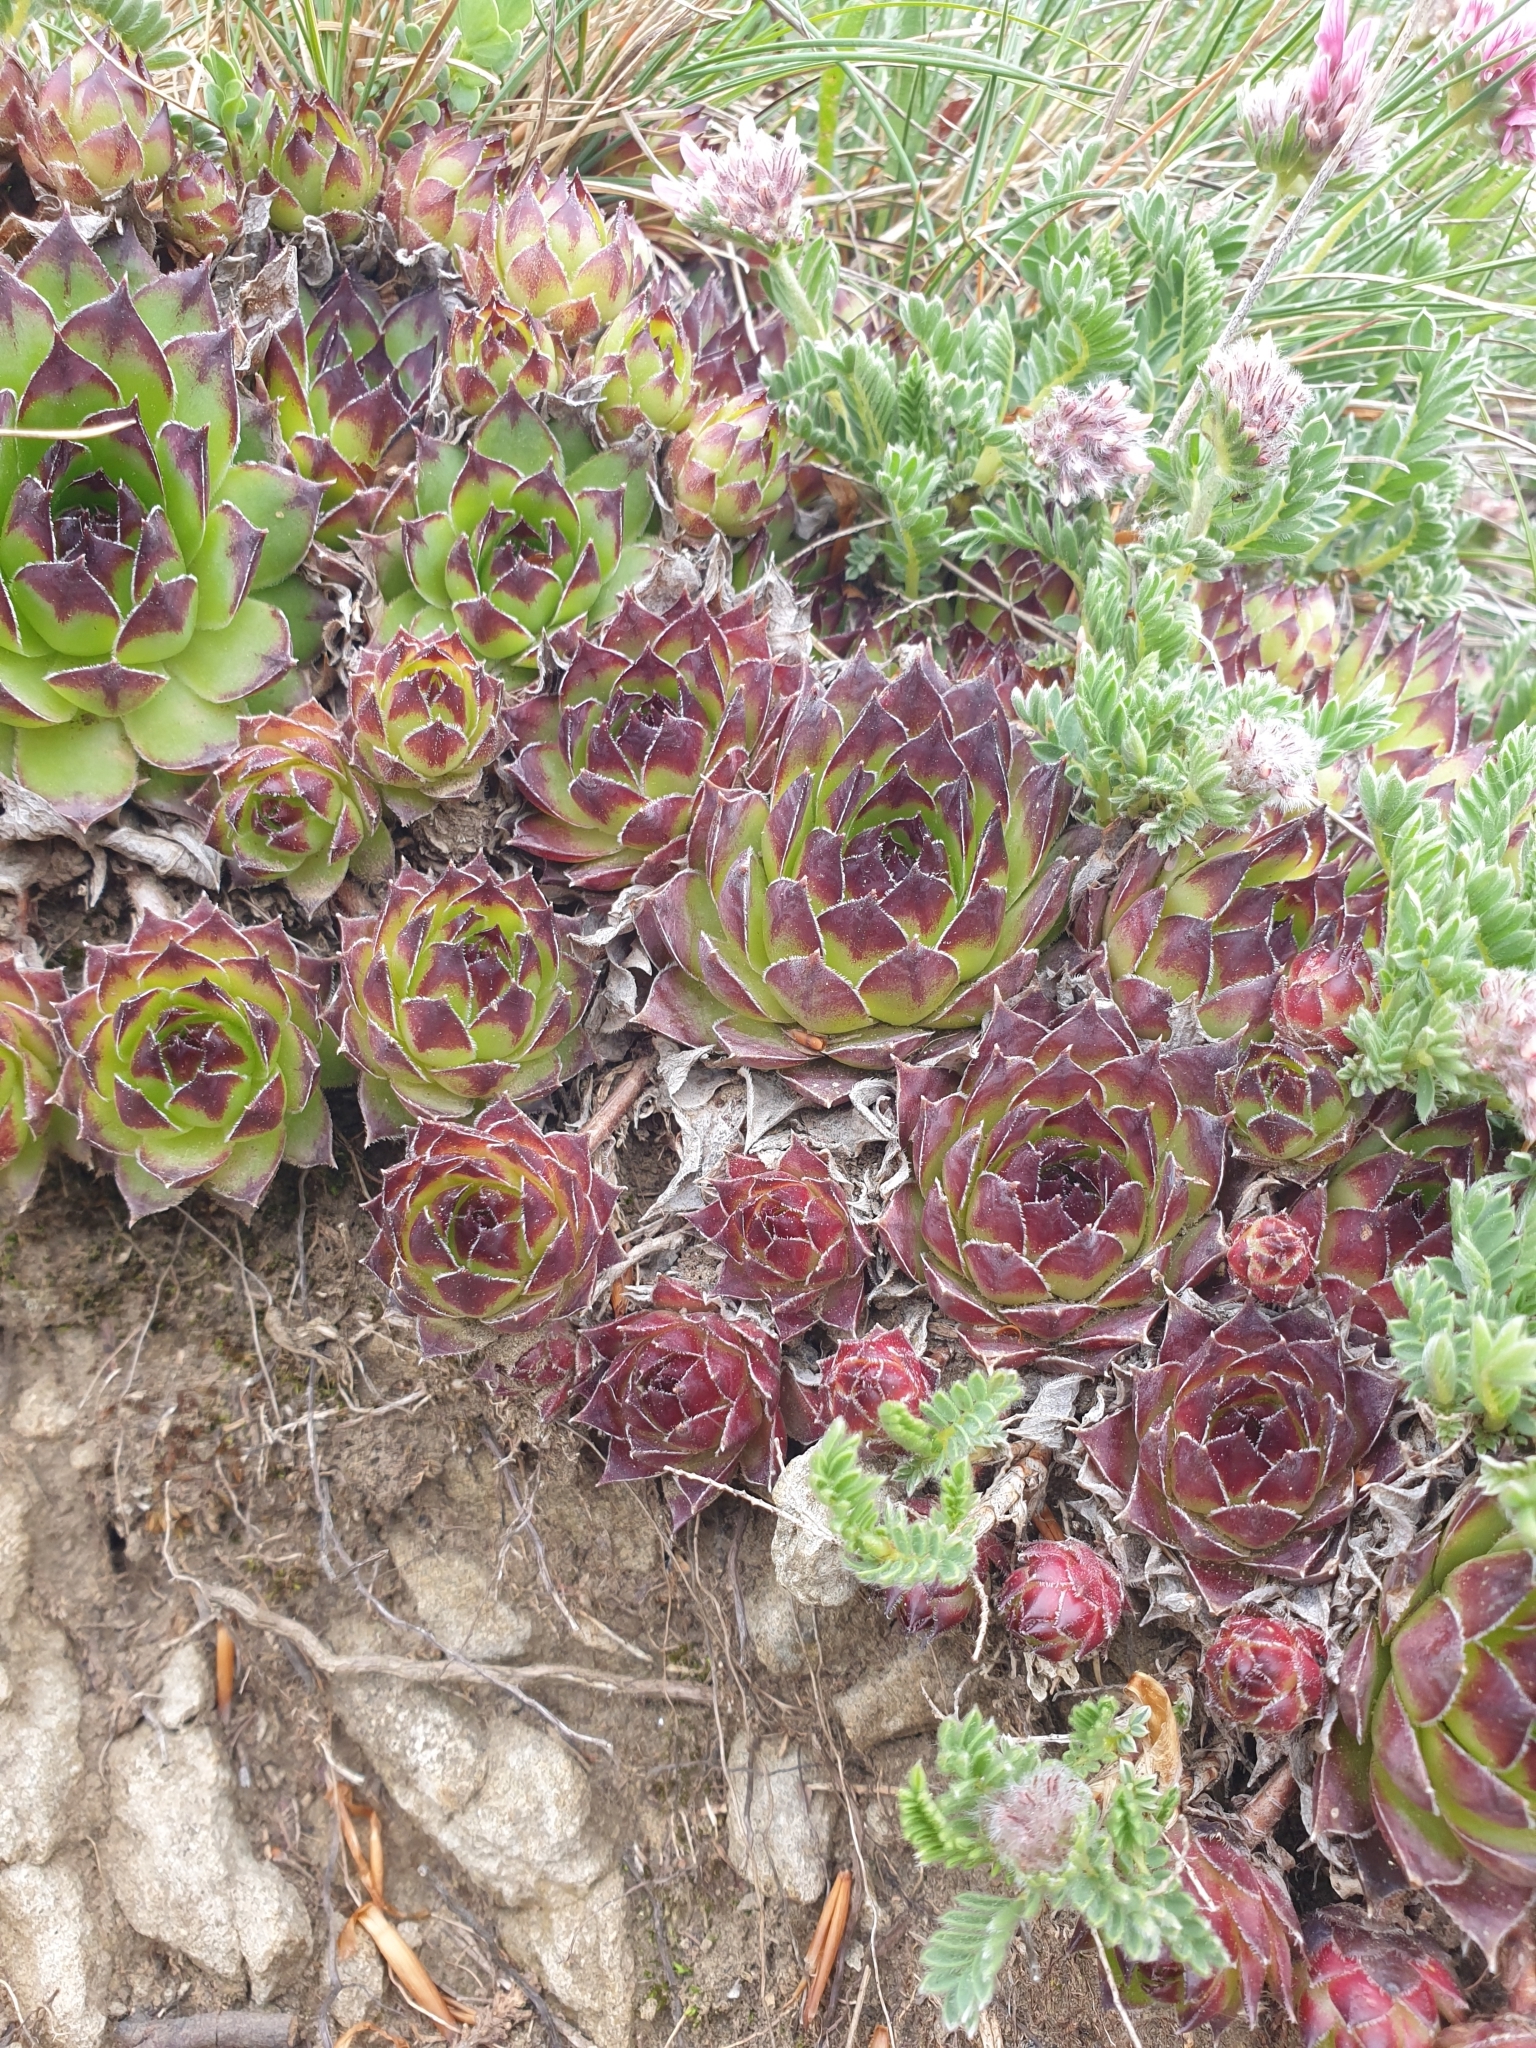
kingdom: Plantae
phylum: Tracheophyta
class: Magnoliopsida
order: Saxifragales
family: Crassulaceae
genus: Sempervivum
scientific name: Sempervivum tectorum
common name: House-leek
